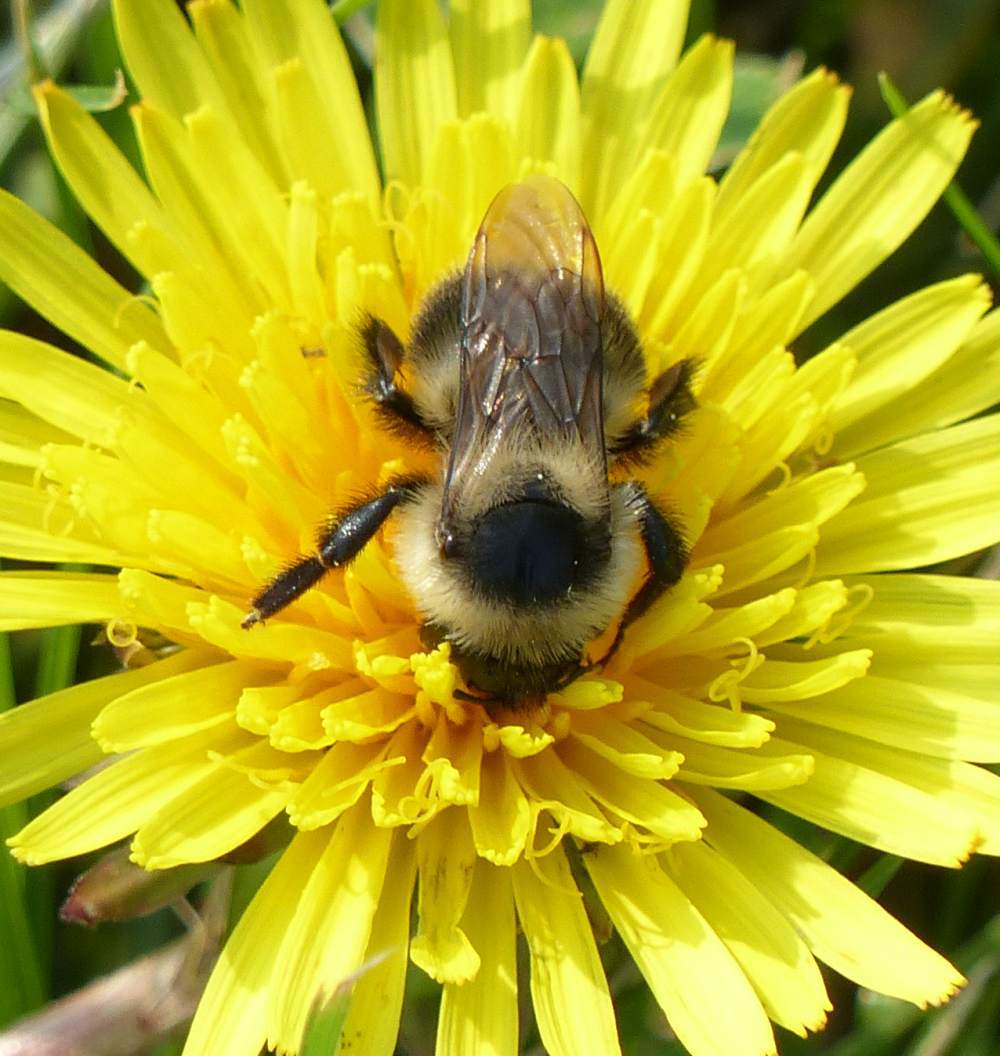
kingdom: Animalia
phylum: Arthropoda
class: Insecta
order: Hymenoptera
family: Apidae
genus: Bombus
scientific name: Bombus rufocinctus
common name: Red-belted bumble bee
